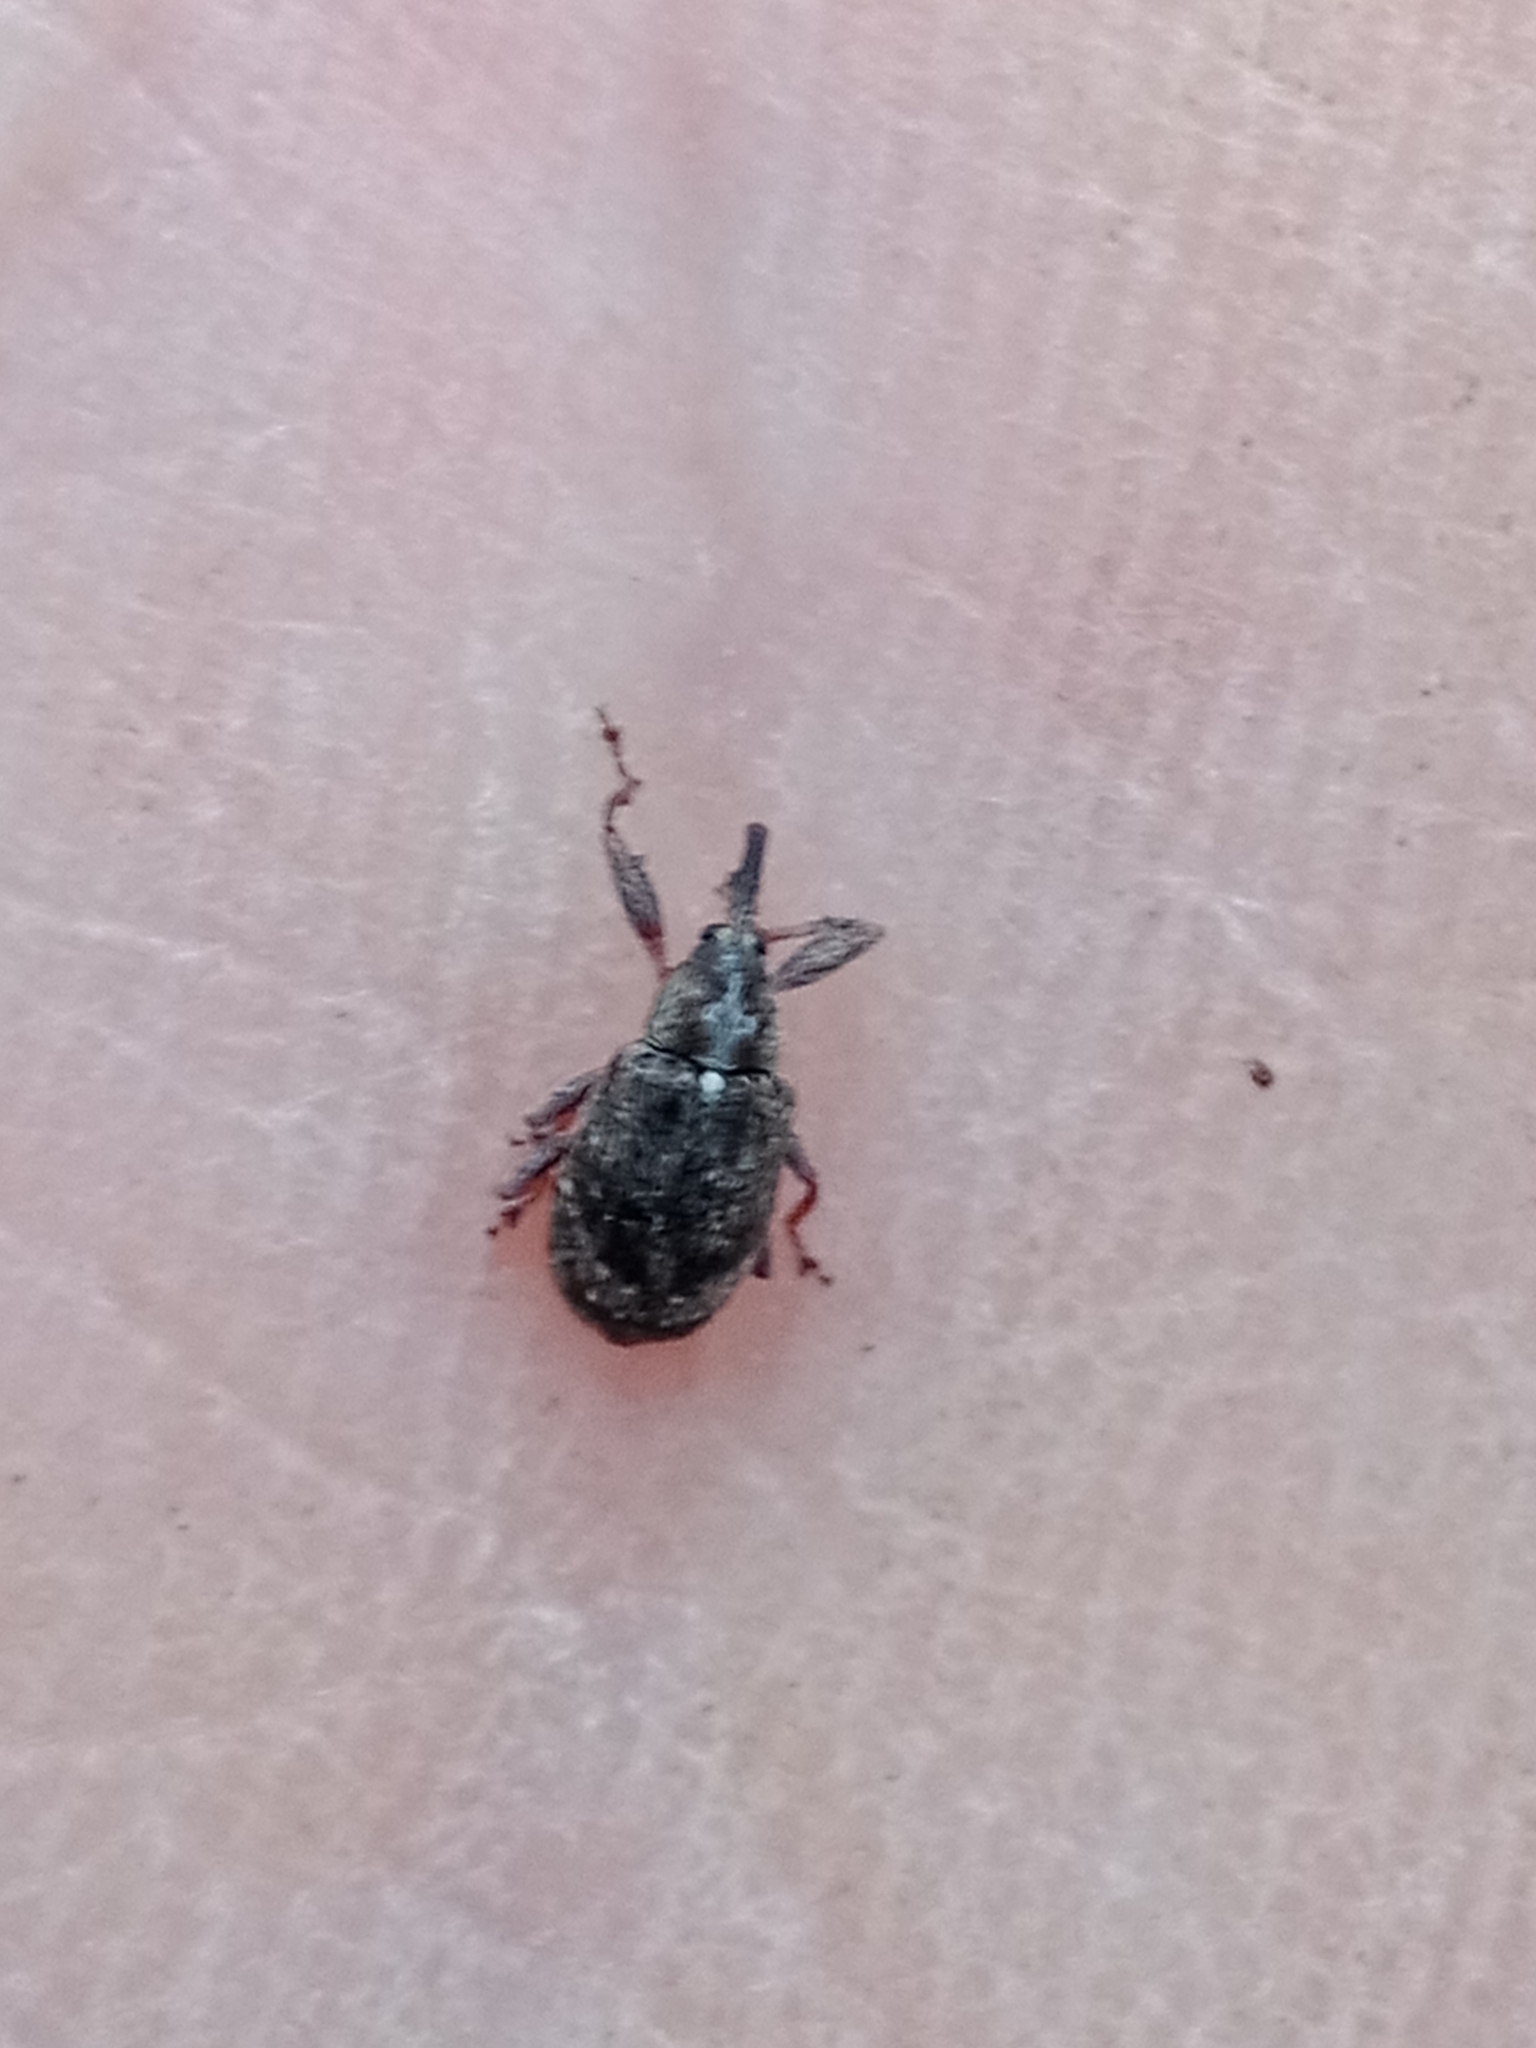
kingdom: Animalia
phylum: Arthropoda
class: Insecta
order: Coleoptera
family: Curculionidae
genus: Anthonomus
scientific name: Anthonomus pomorum
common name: Apple-blossom weevil
